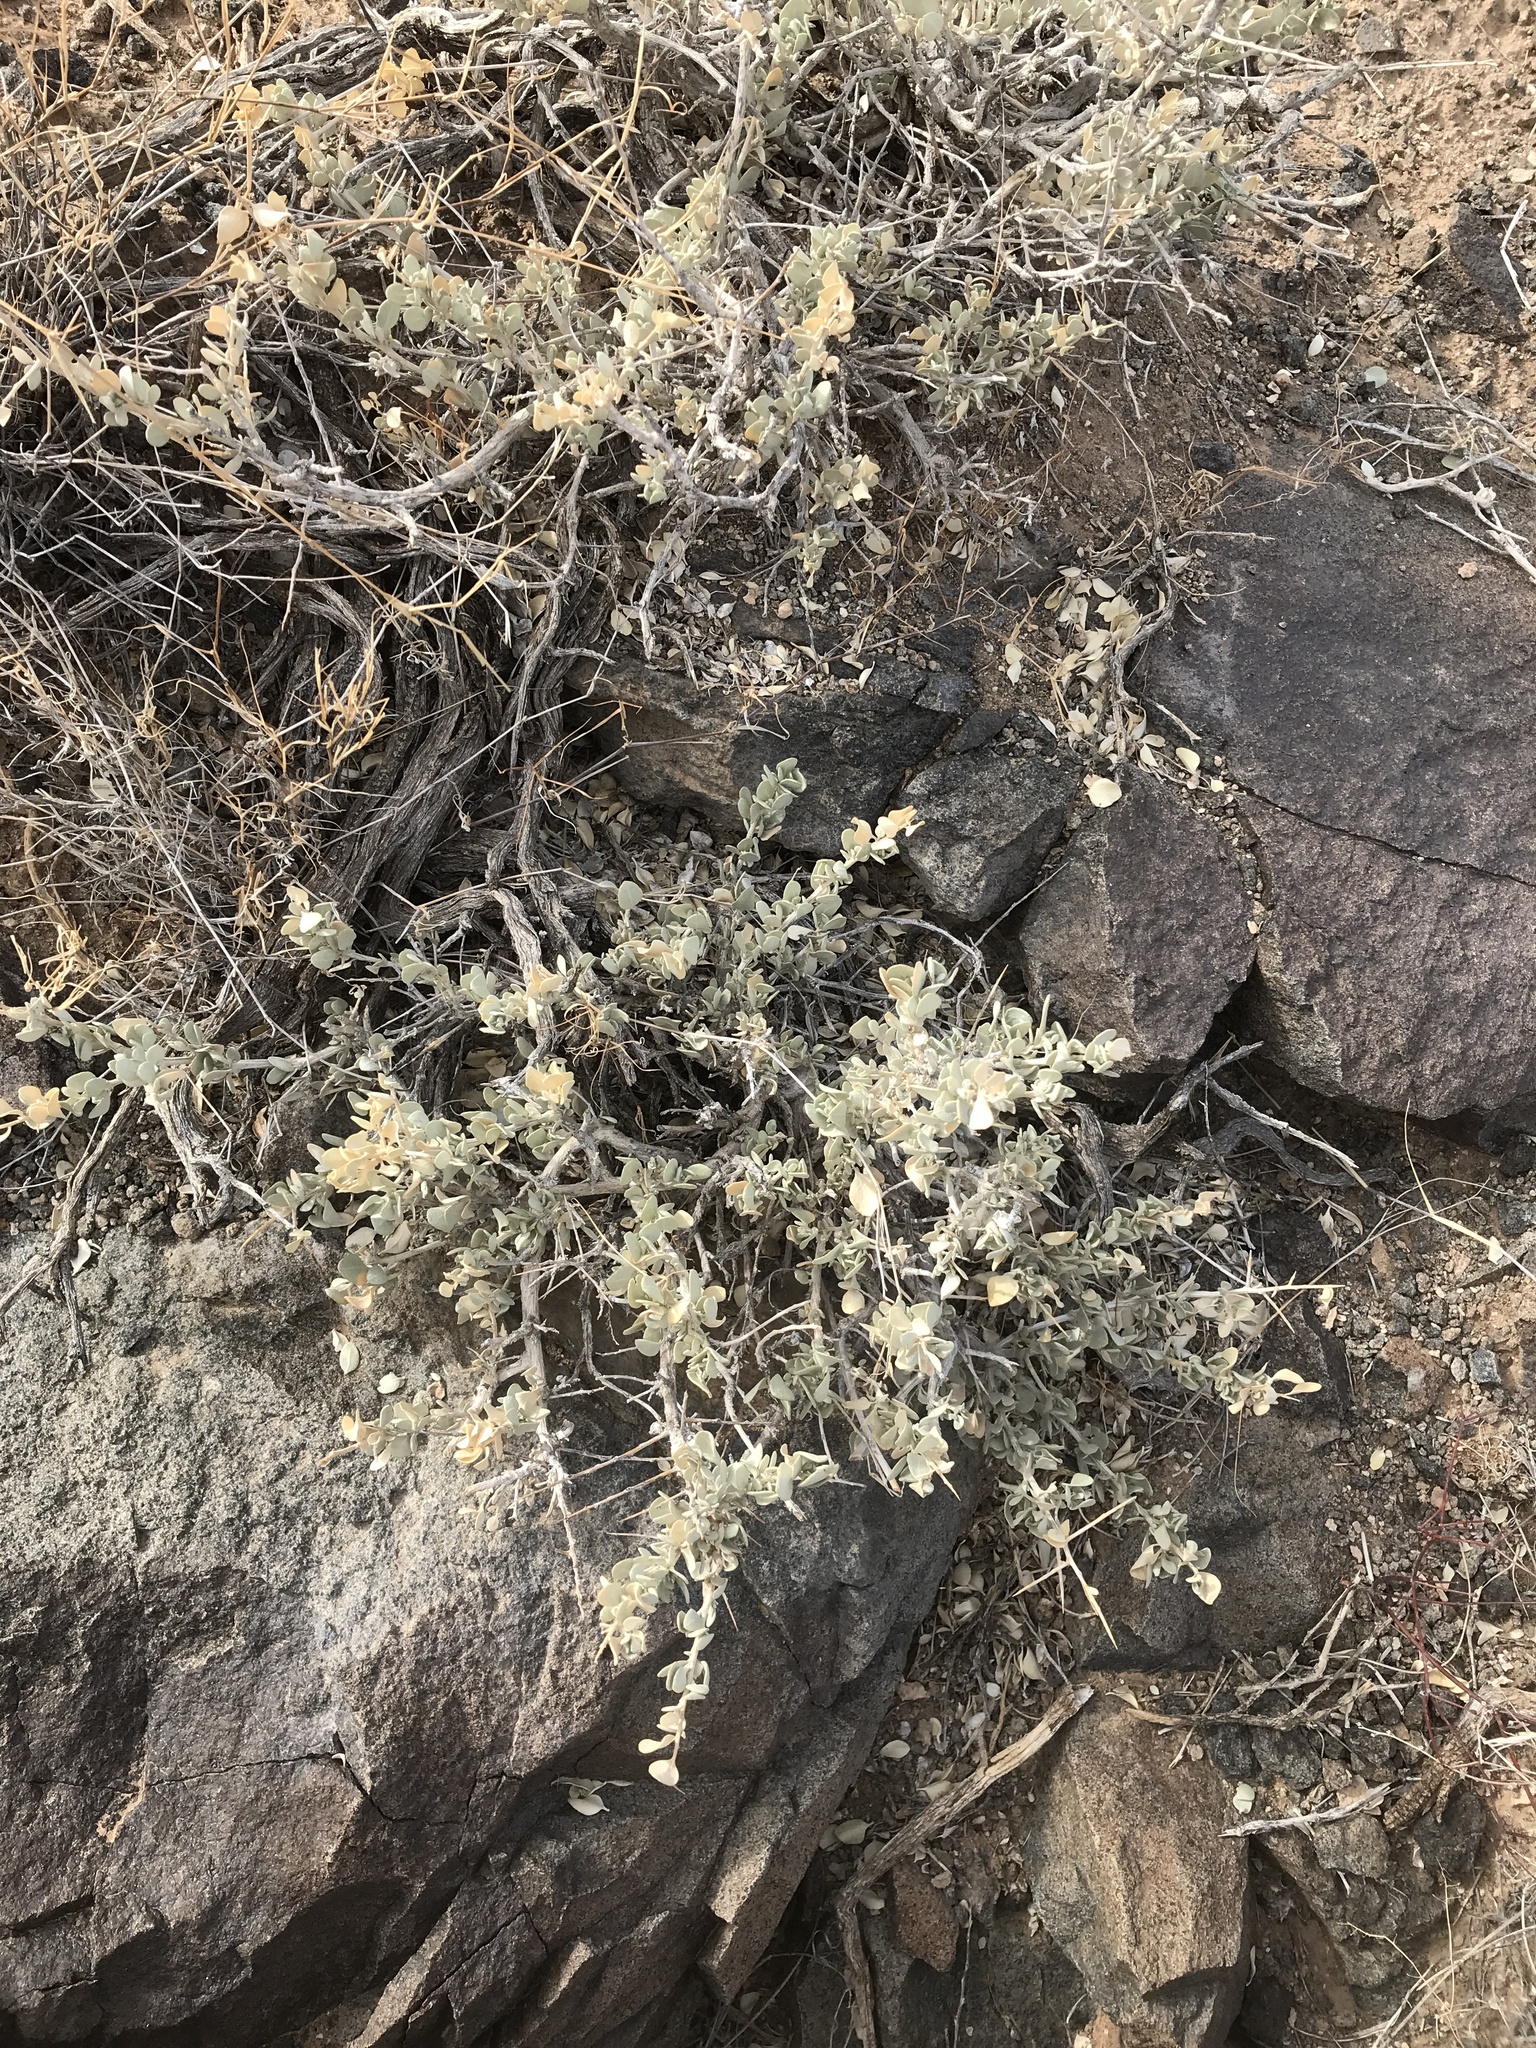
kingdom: Plantae
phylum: Tracheophyta
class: Magnoliopsida
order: Caryophyllales
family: Amaranthaceae
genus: Atriplex
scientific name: Atriplex confertifolia
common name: Shadscale
